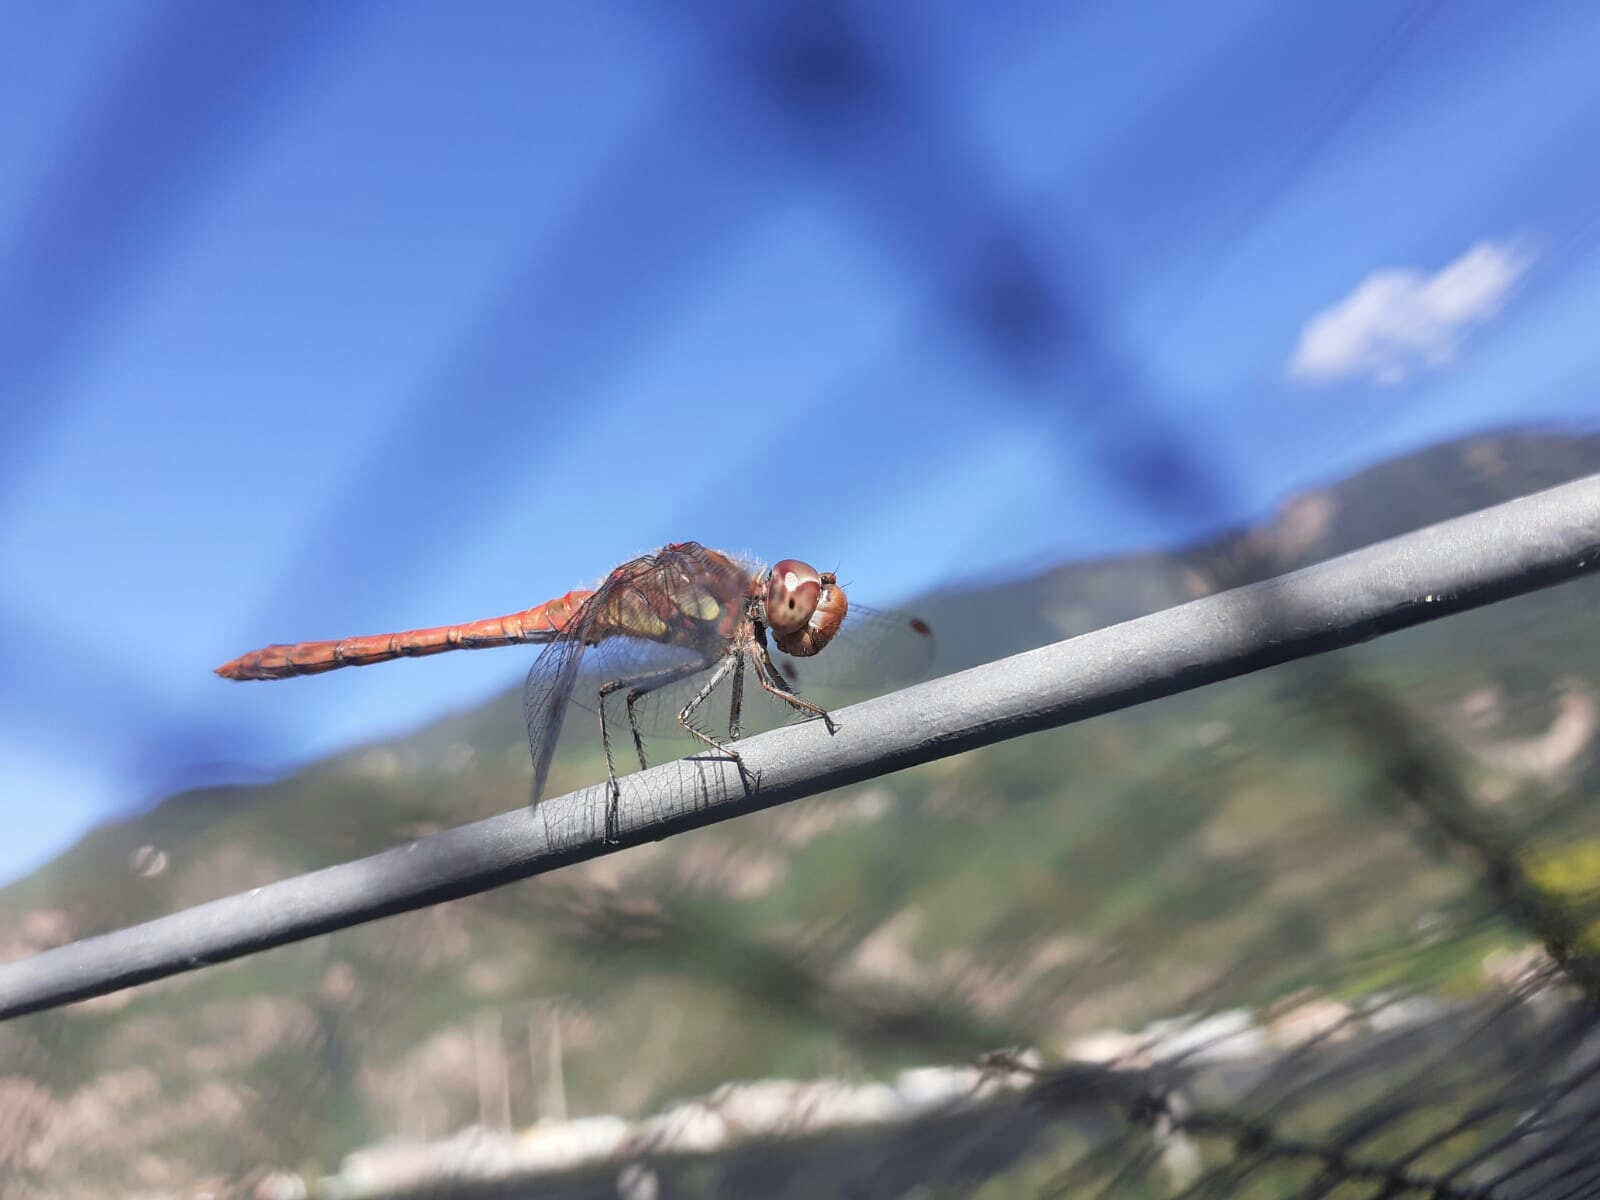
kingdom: Animalia
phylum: Arthropoda
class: Insecta
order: Odonata
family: Libellulidae
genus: Sympetrum
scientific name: Sympetrum striolatum
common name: Common darter
